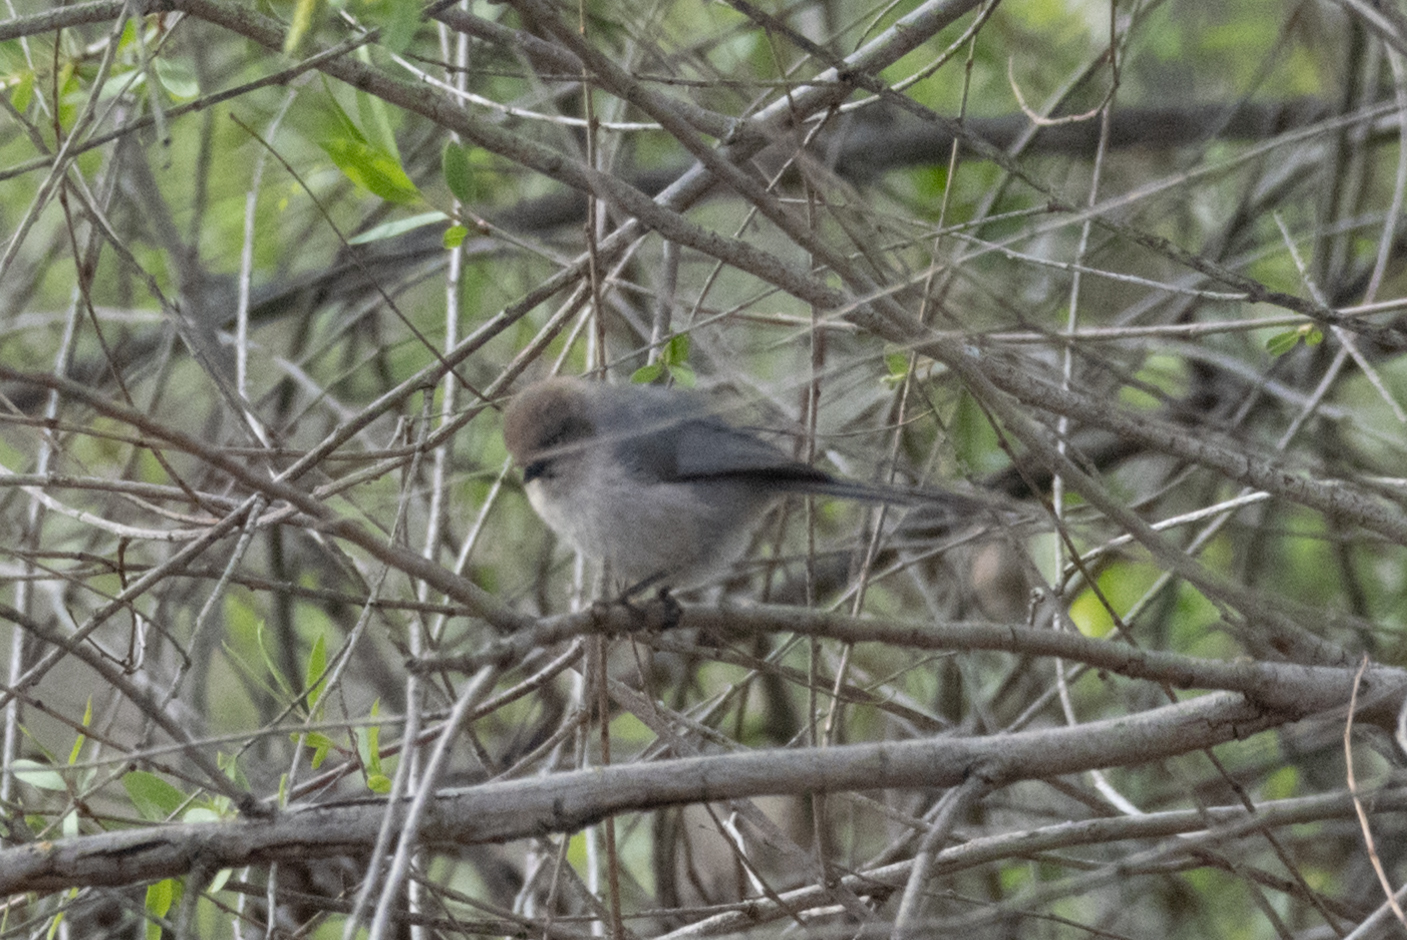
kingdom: Animalia
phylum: Chordata
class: Aves
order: Passeriformes
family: Aegithalidae
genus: Psaltriparus
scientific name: Psaltriparus minimus
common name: American bushtit
